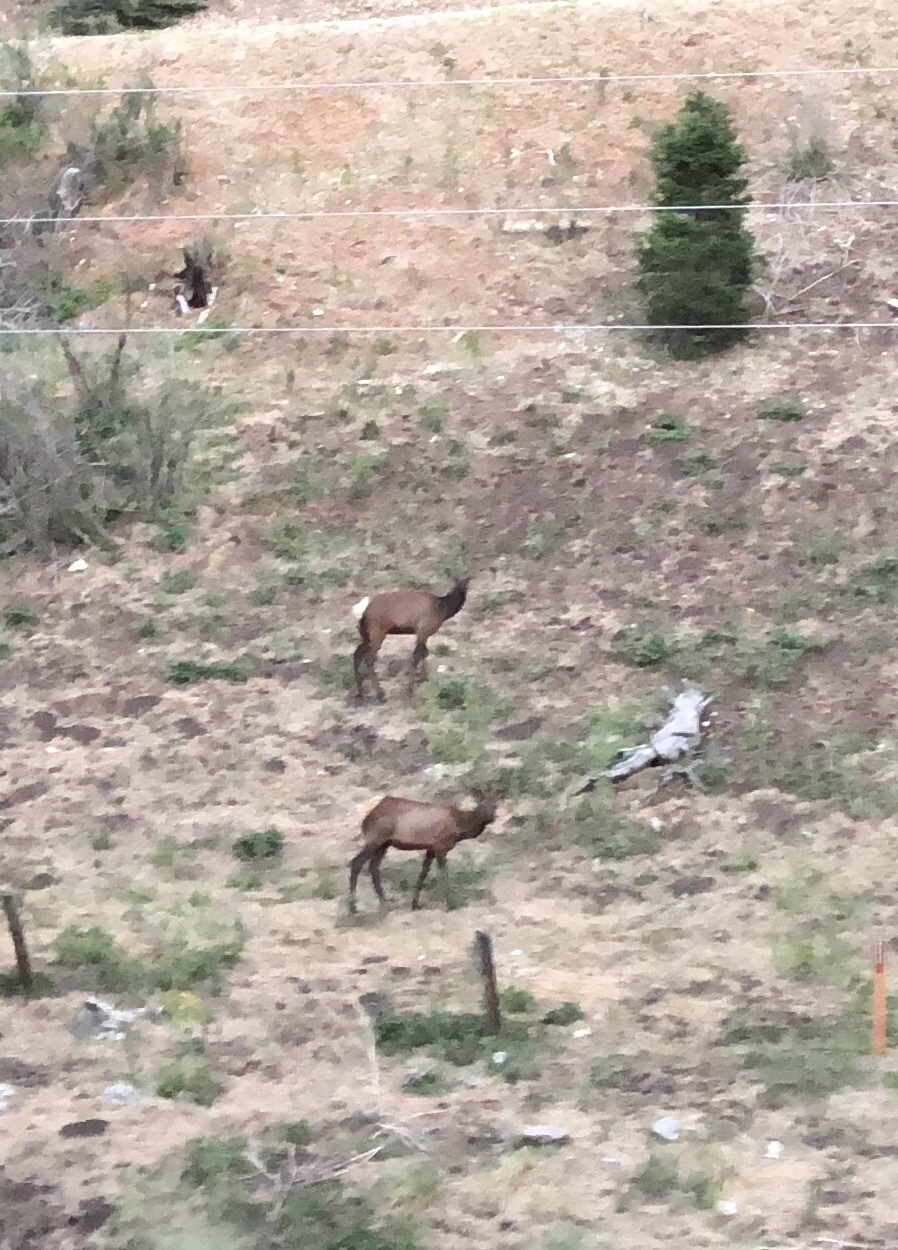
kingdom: Animalia
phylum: Chordata
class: Mammalia
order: Artiodactyla
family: Cervidae
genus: Cervus
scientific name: Cervus elaphus
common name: Red deer
